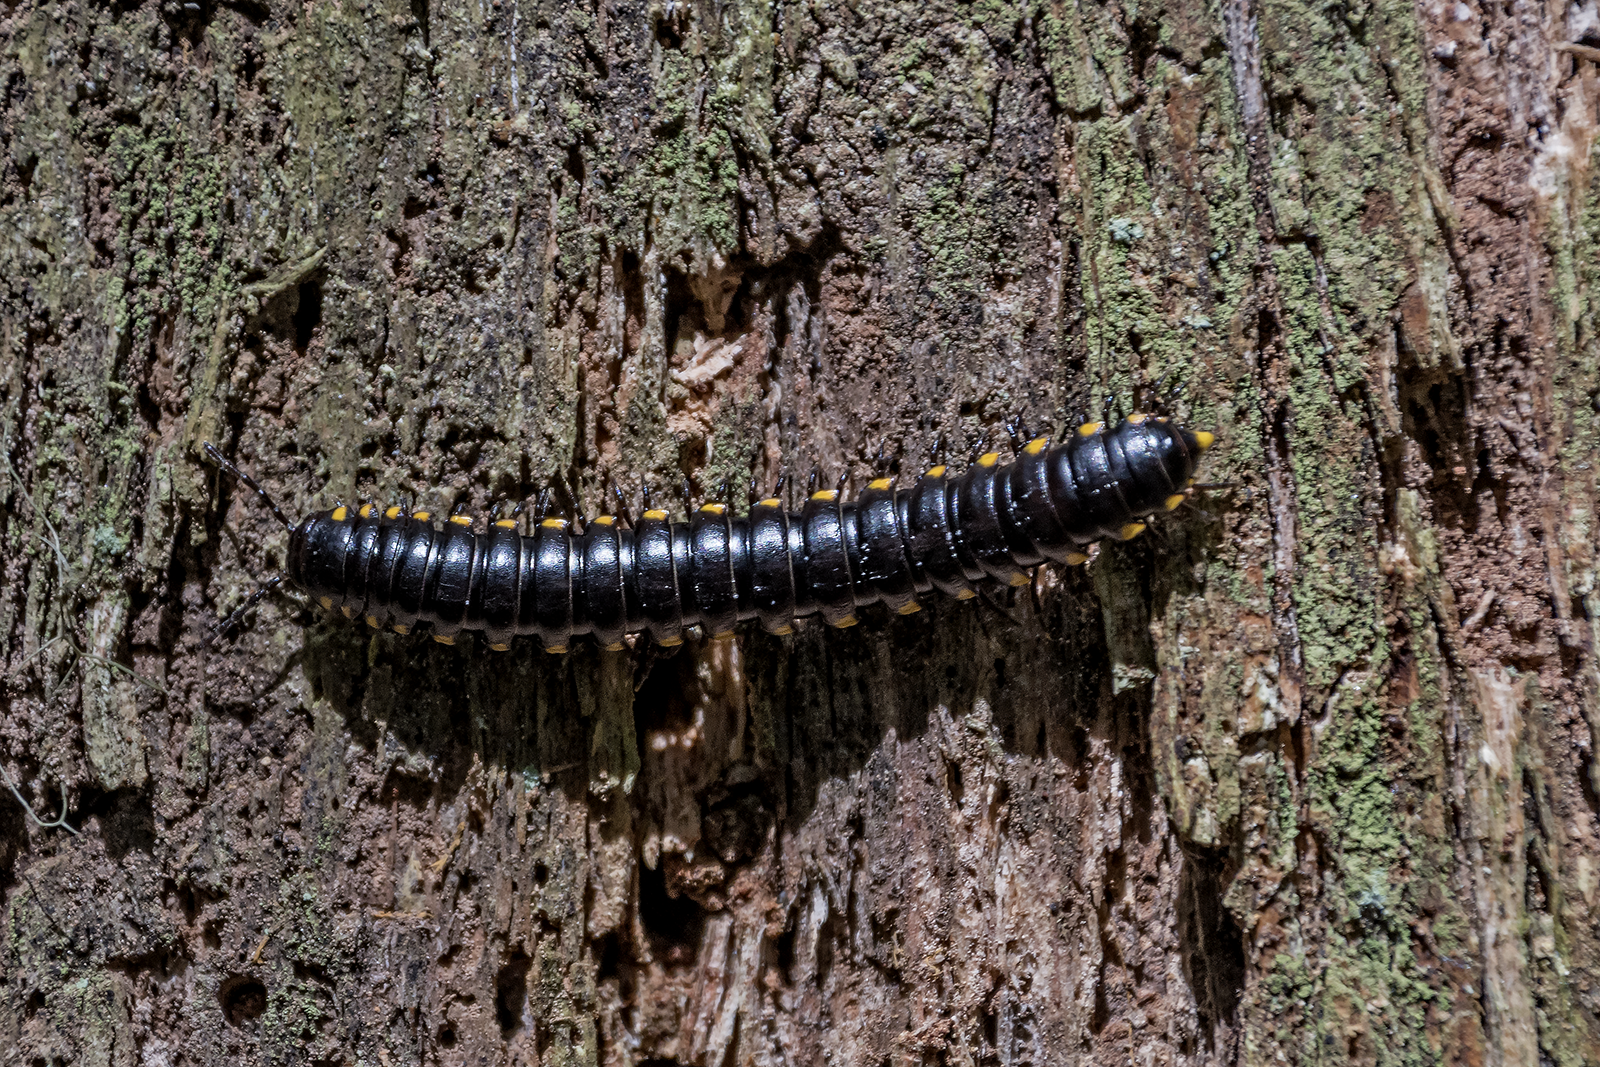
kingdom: Animalia
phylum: Arthropoda
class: Diplopoda
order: Polydesmida
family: Xystodesmidae
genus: Harpaphe
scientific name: Harpaphe haydeniana
